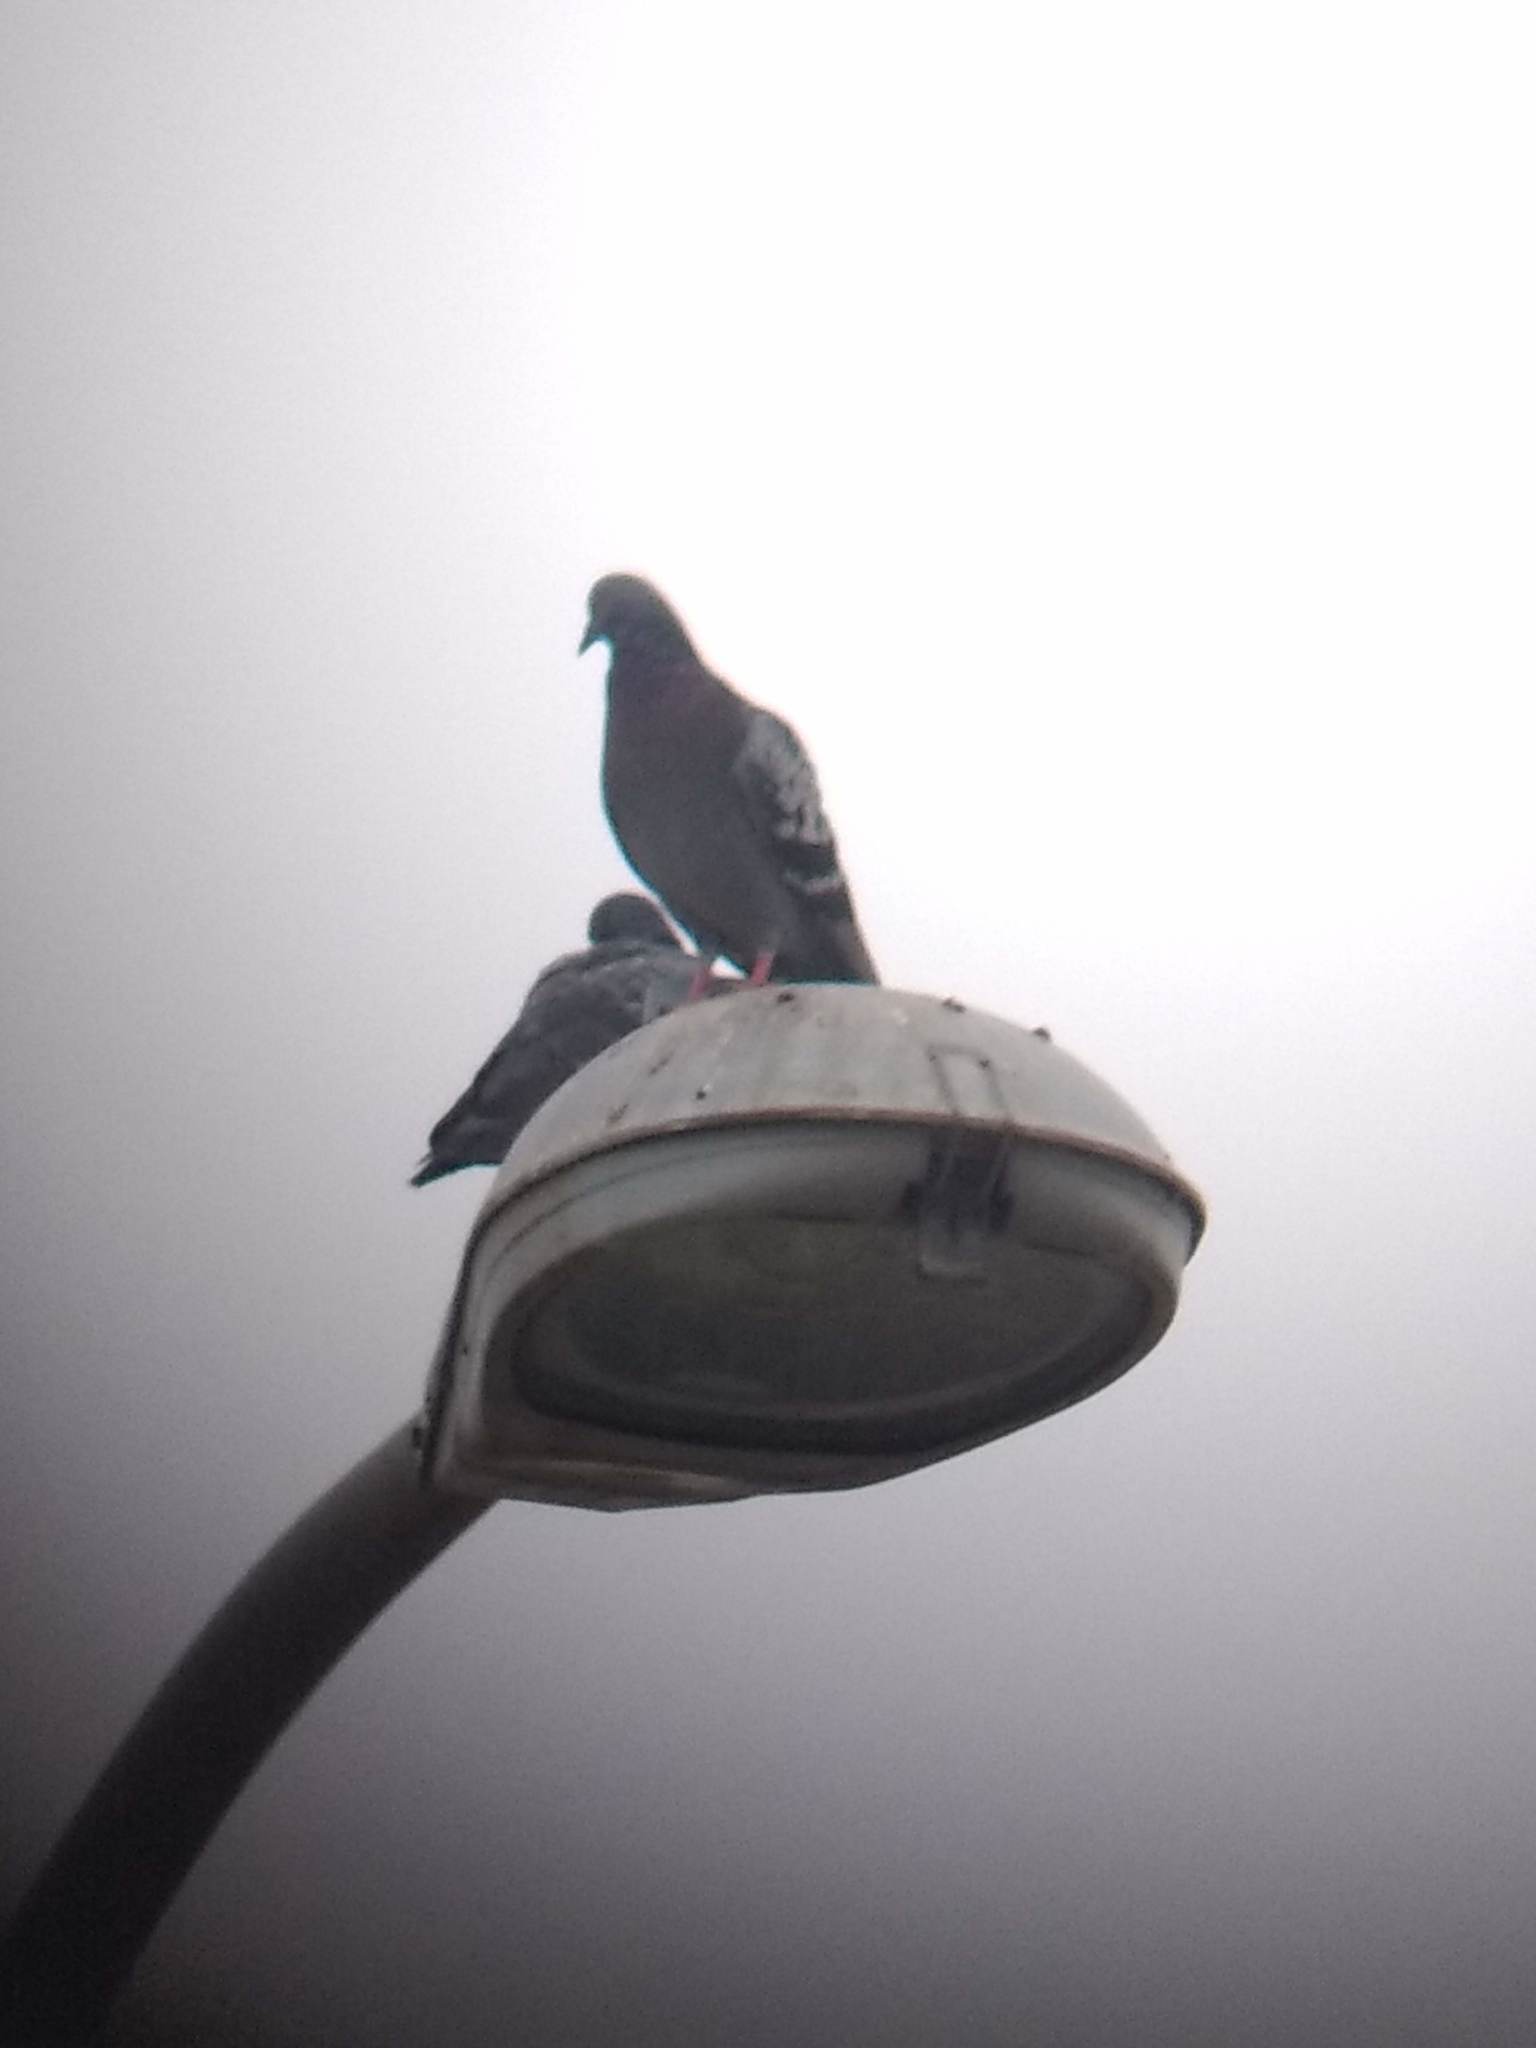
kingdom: Animalia
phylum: Chordata
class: Aves
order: Columbiformes
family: Columbidae
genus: Columba
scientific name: Columba livia
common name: Rock pigeon
